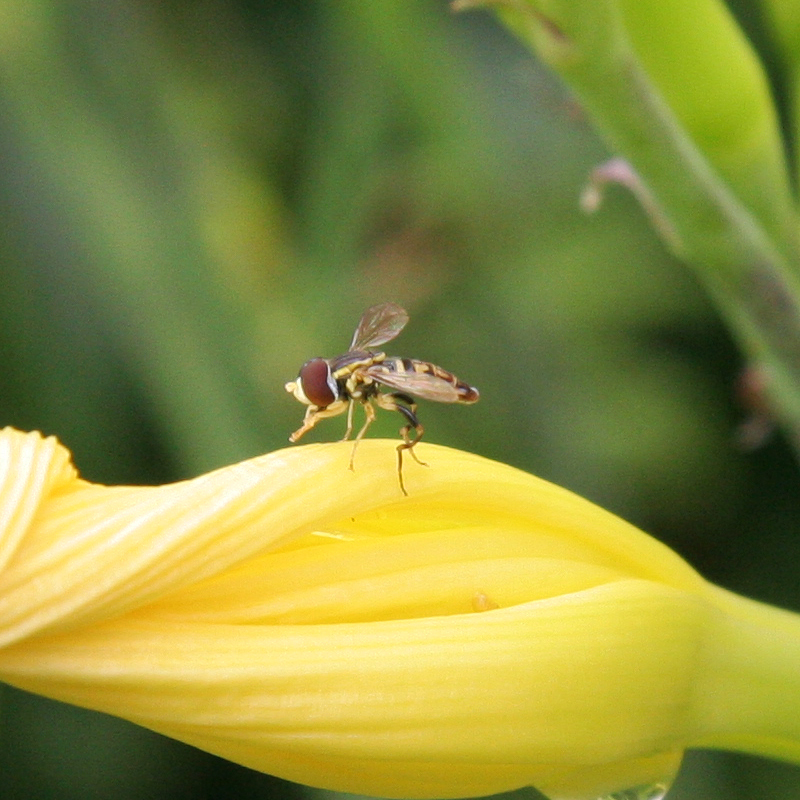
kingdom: Animalia
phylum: Arthropoda
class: Insecta
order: Diptera
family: Syrphidae
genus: Toxomerus
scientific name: Toxomerus geminatus
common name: Eastern calligrapher
